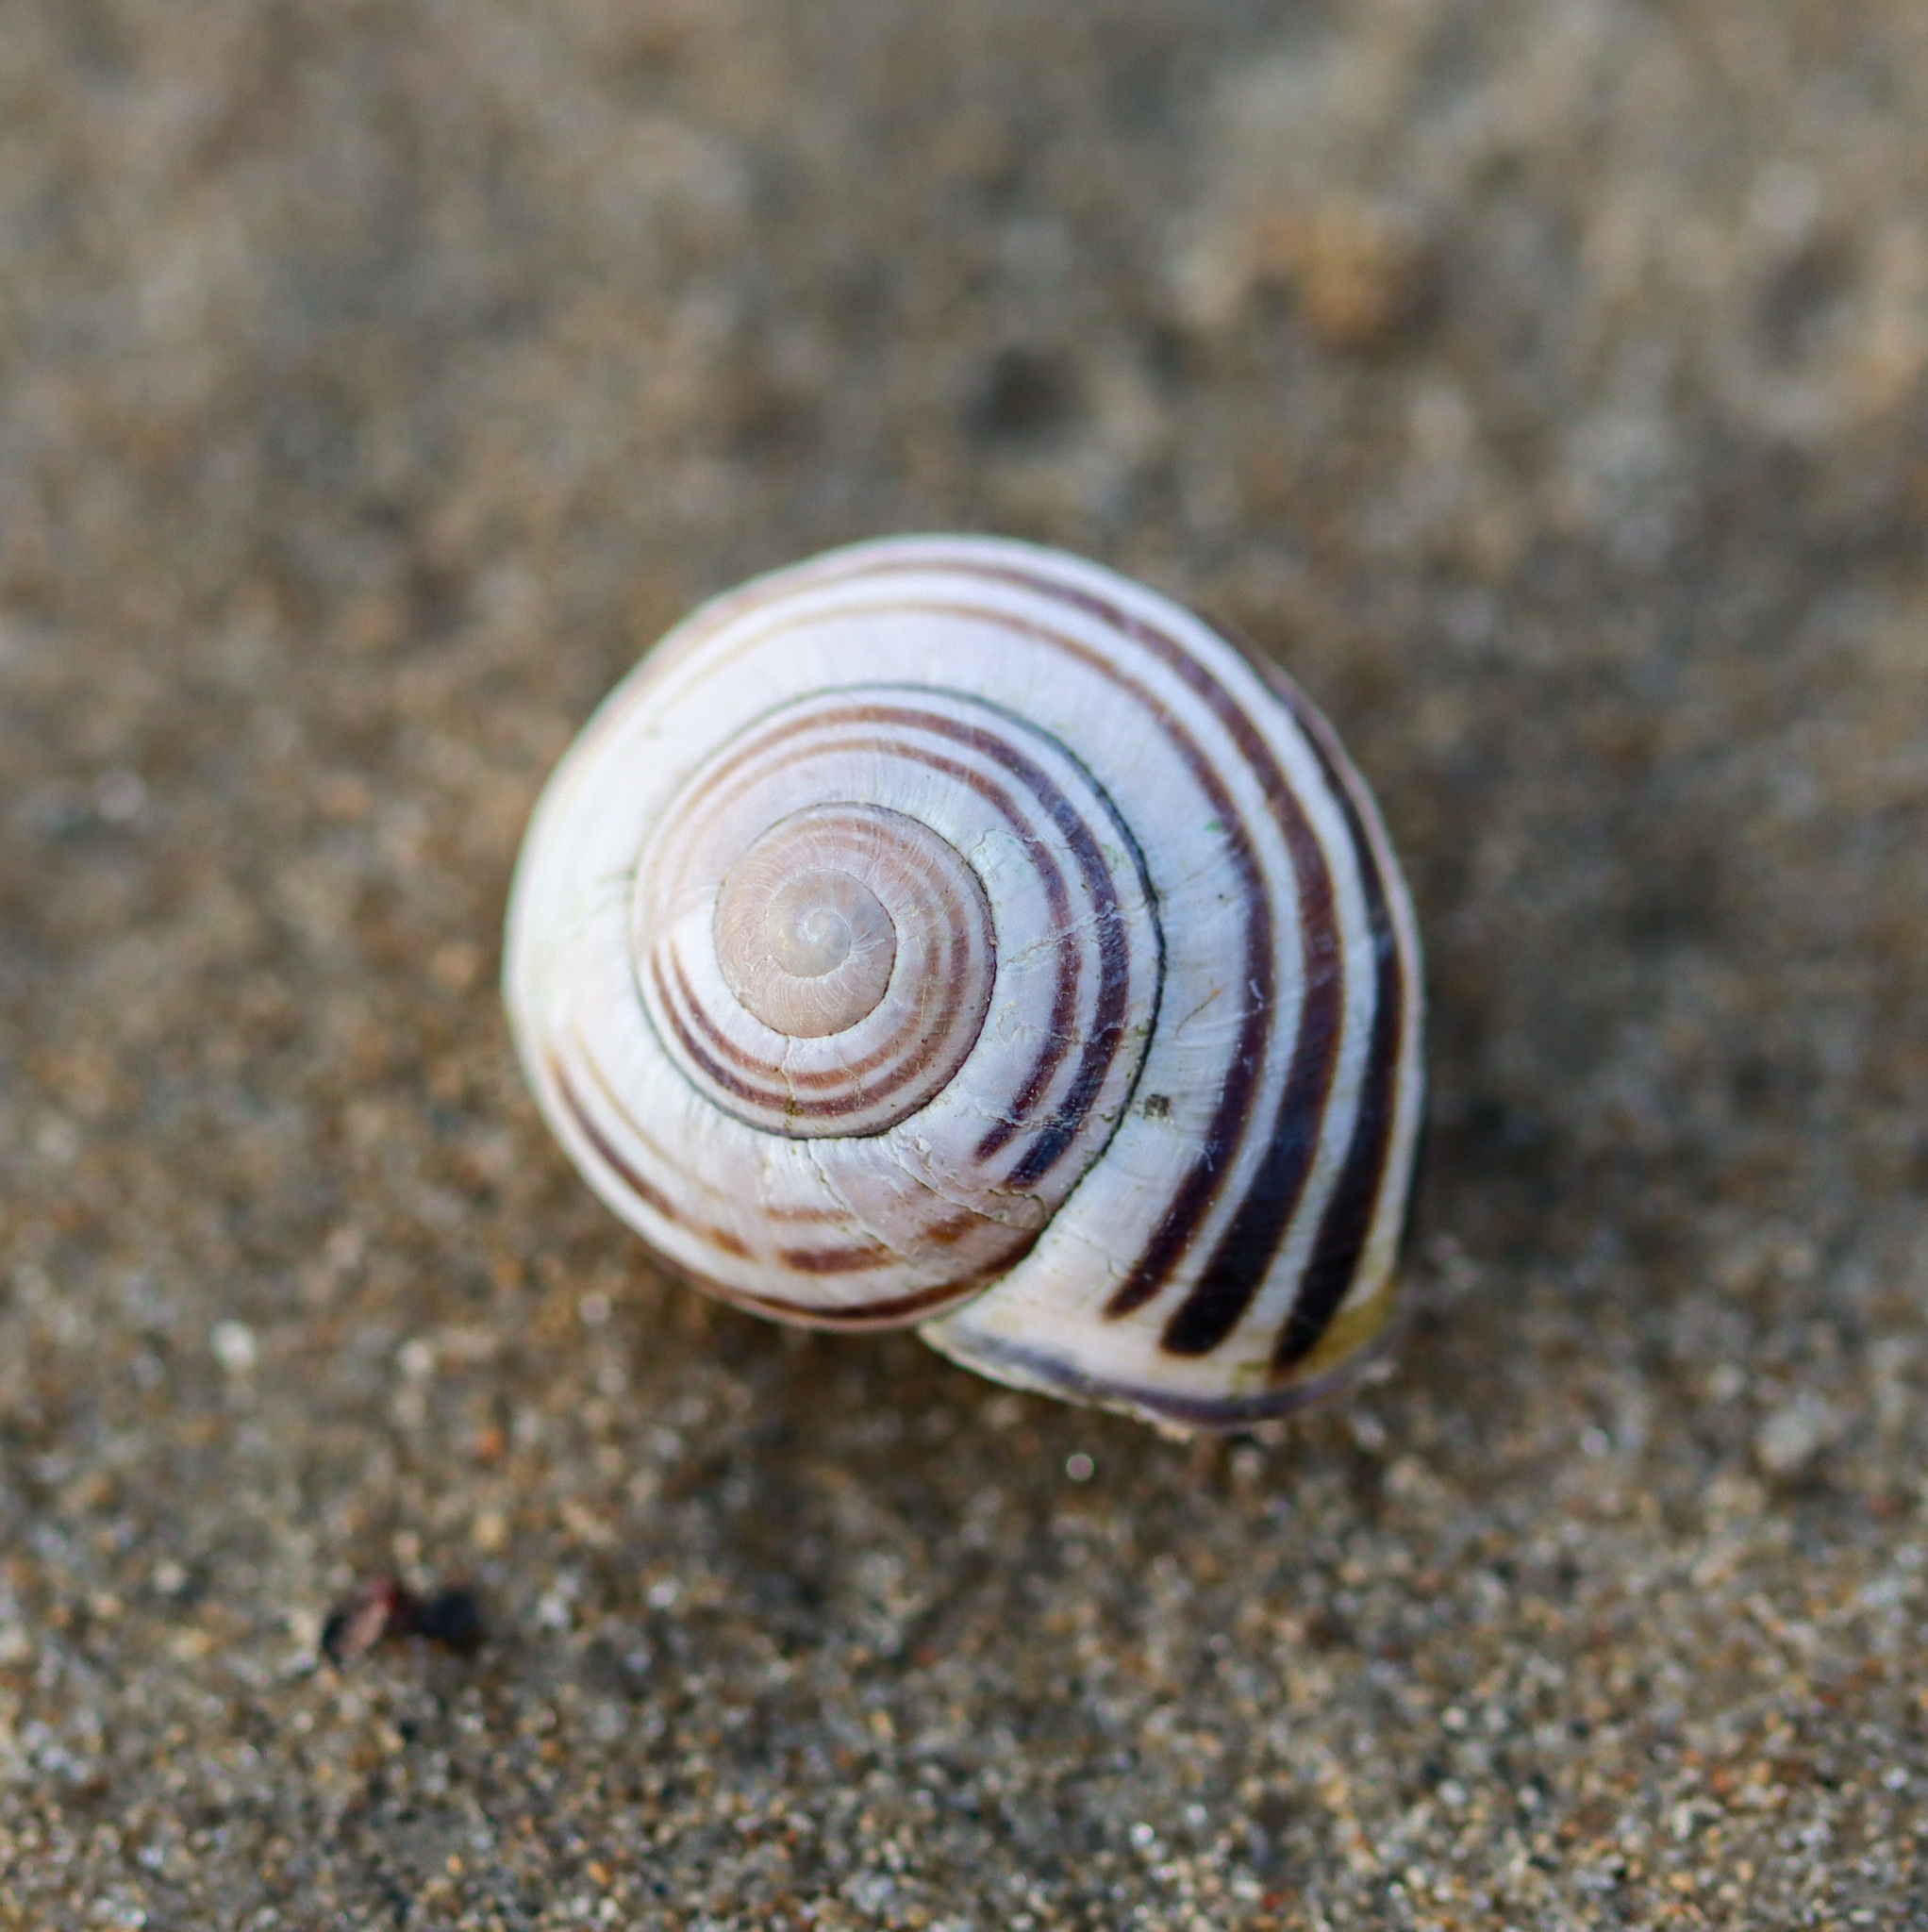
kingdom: Animalia
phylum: Mollusca
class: Gastropoda
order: Stylommatophora
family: Helicidae
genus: Cepaea
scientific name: Cepaea nemoralis
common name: Grovesnail
